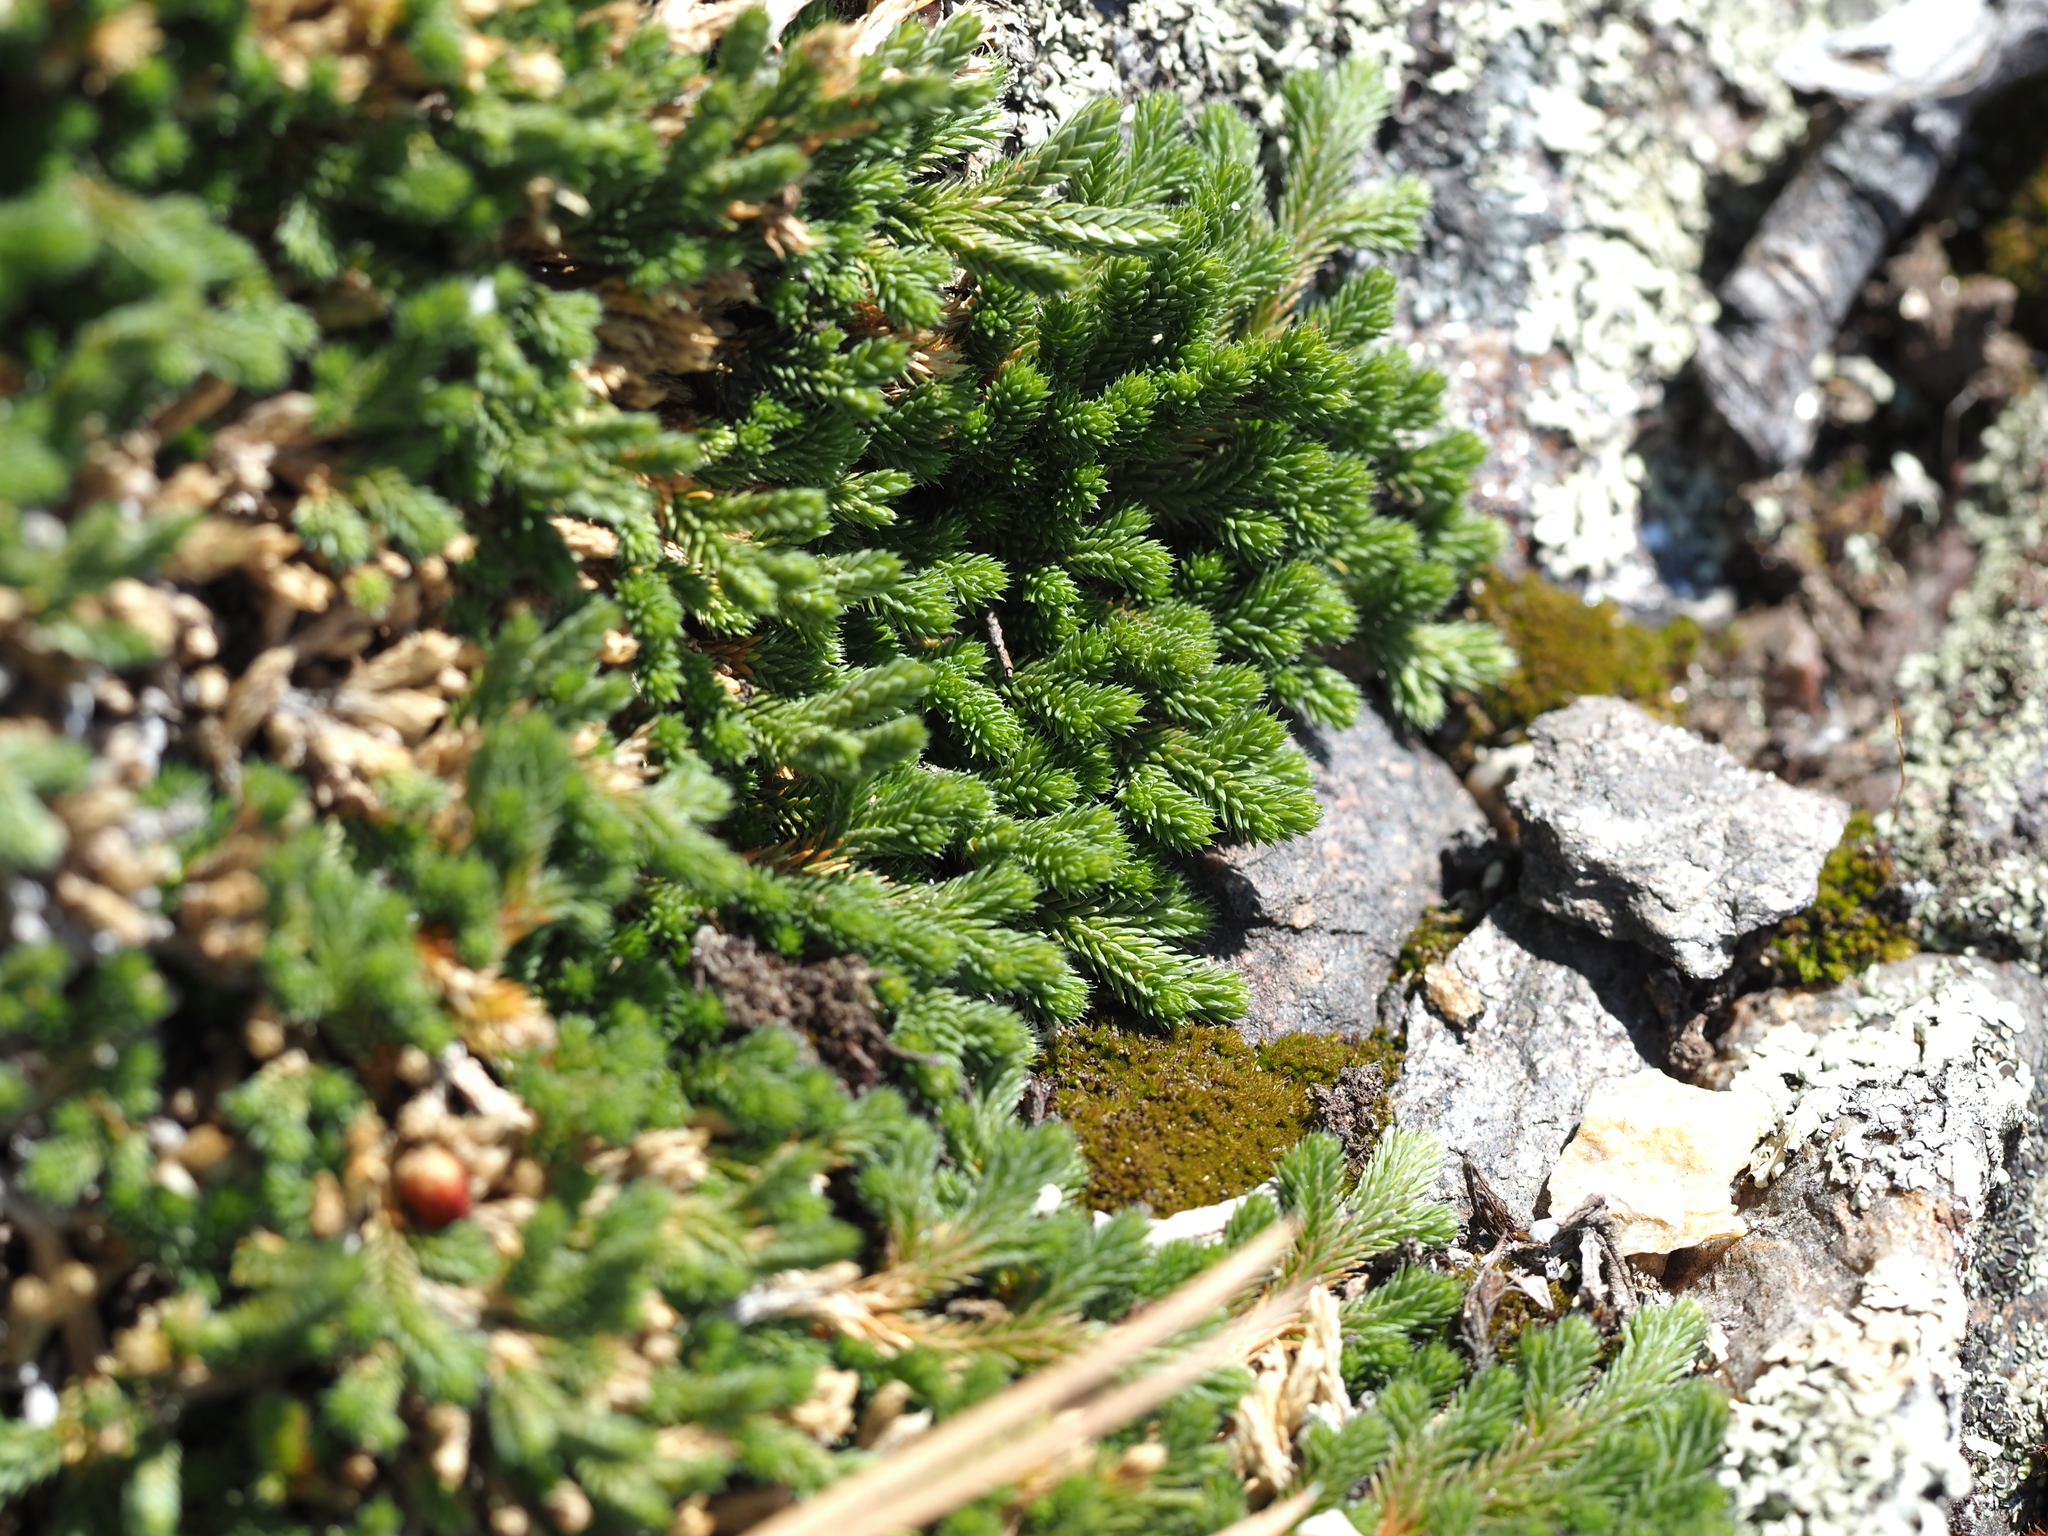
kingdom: Plantae
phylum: Tracheophyta
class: Lycopodiopsida
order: Selaginellales
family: Selaginellaceae
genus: Selaginella
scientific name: Selaginella wallacei
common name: Wallace's selaginella
